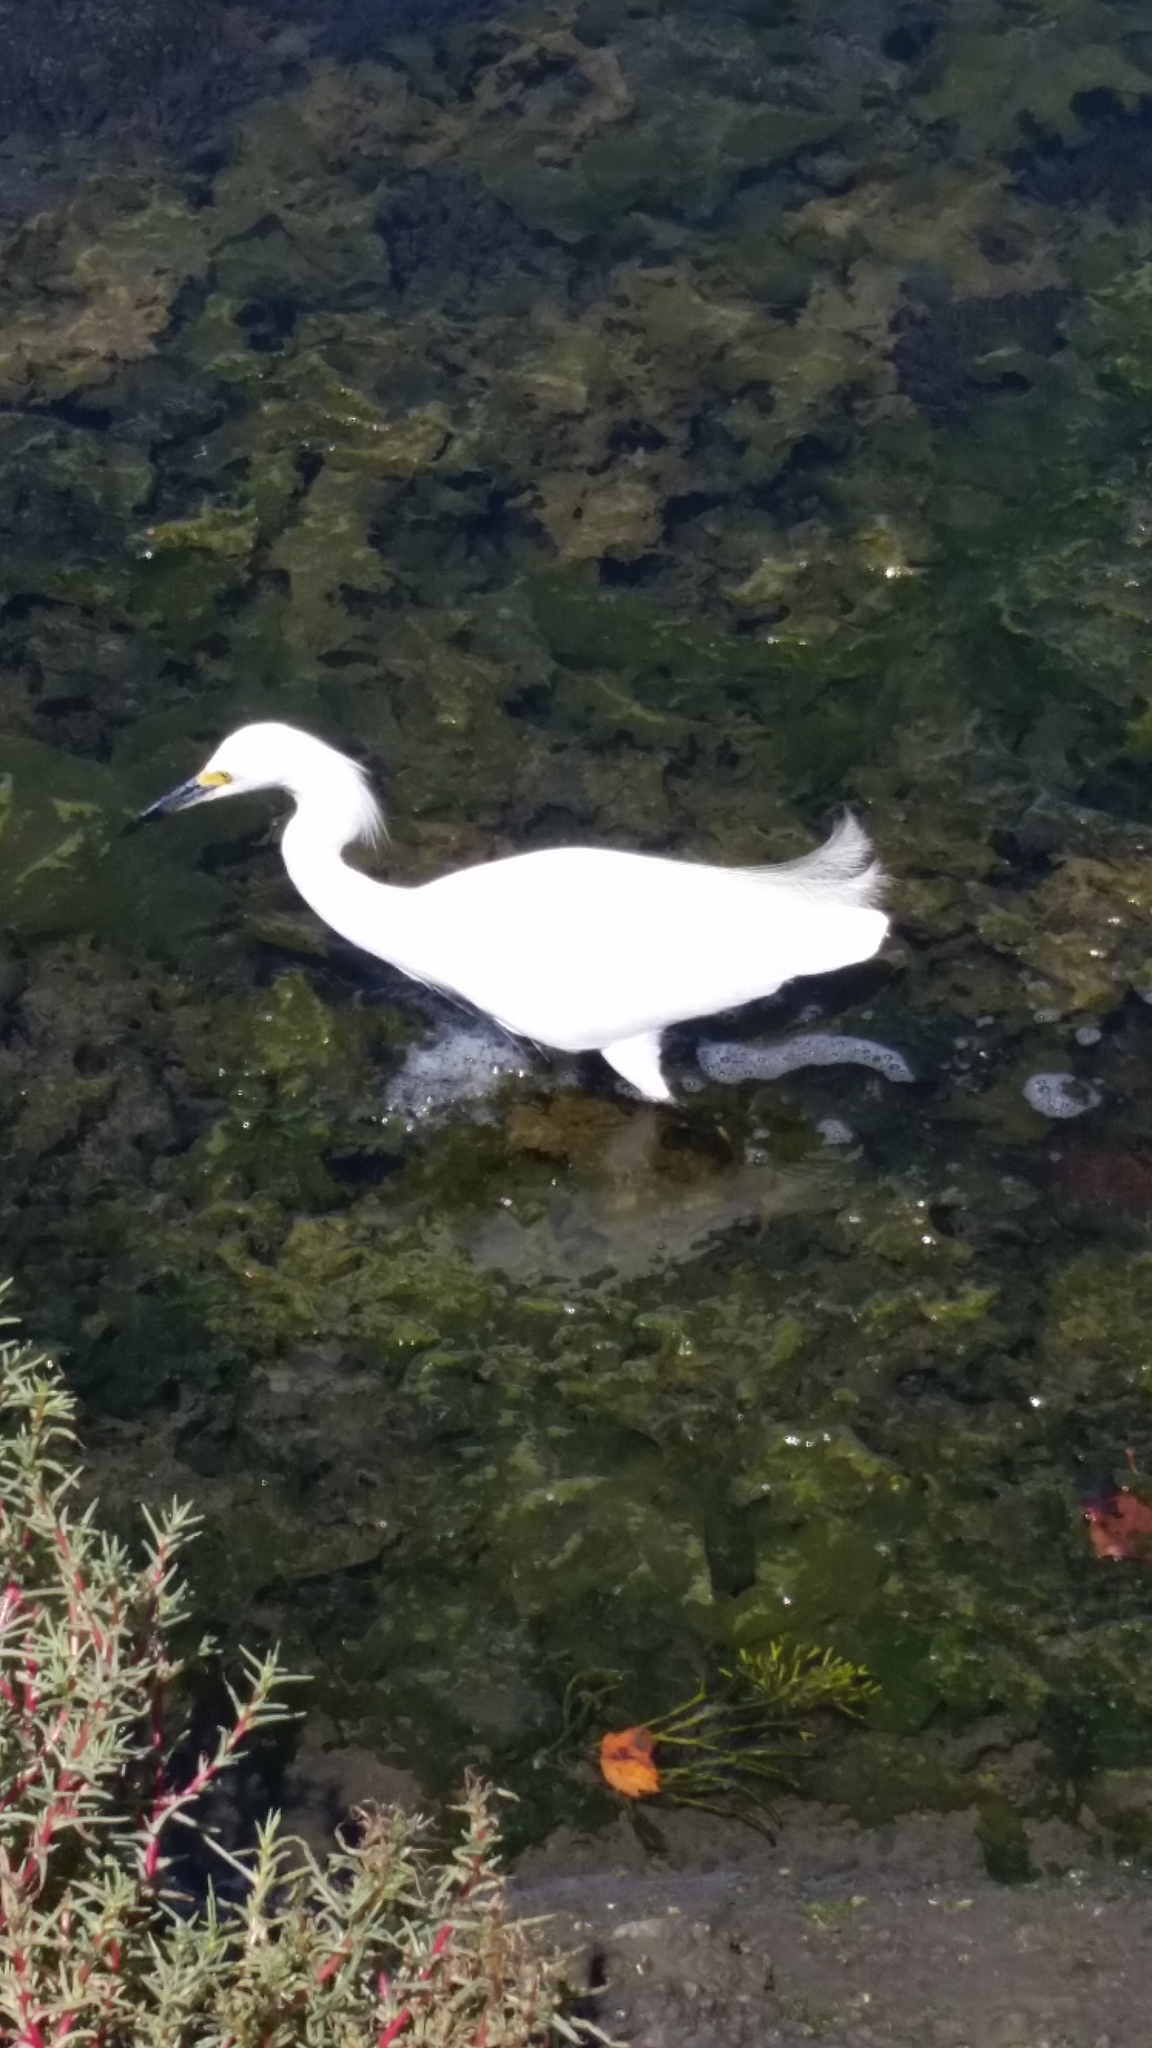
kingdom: Animalia
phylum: Chordata
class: Aves
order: Pelecaniformes
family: Ardeidae
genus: Egretta
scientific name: Egretta thula
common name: Snowy egret
